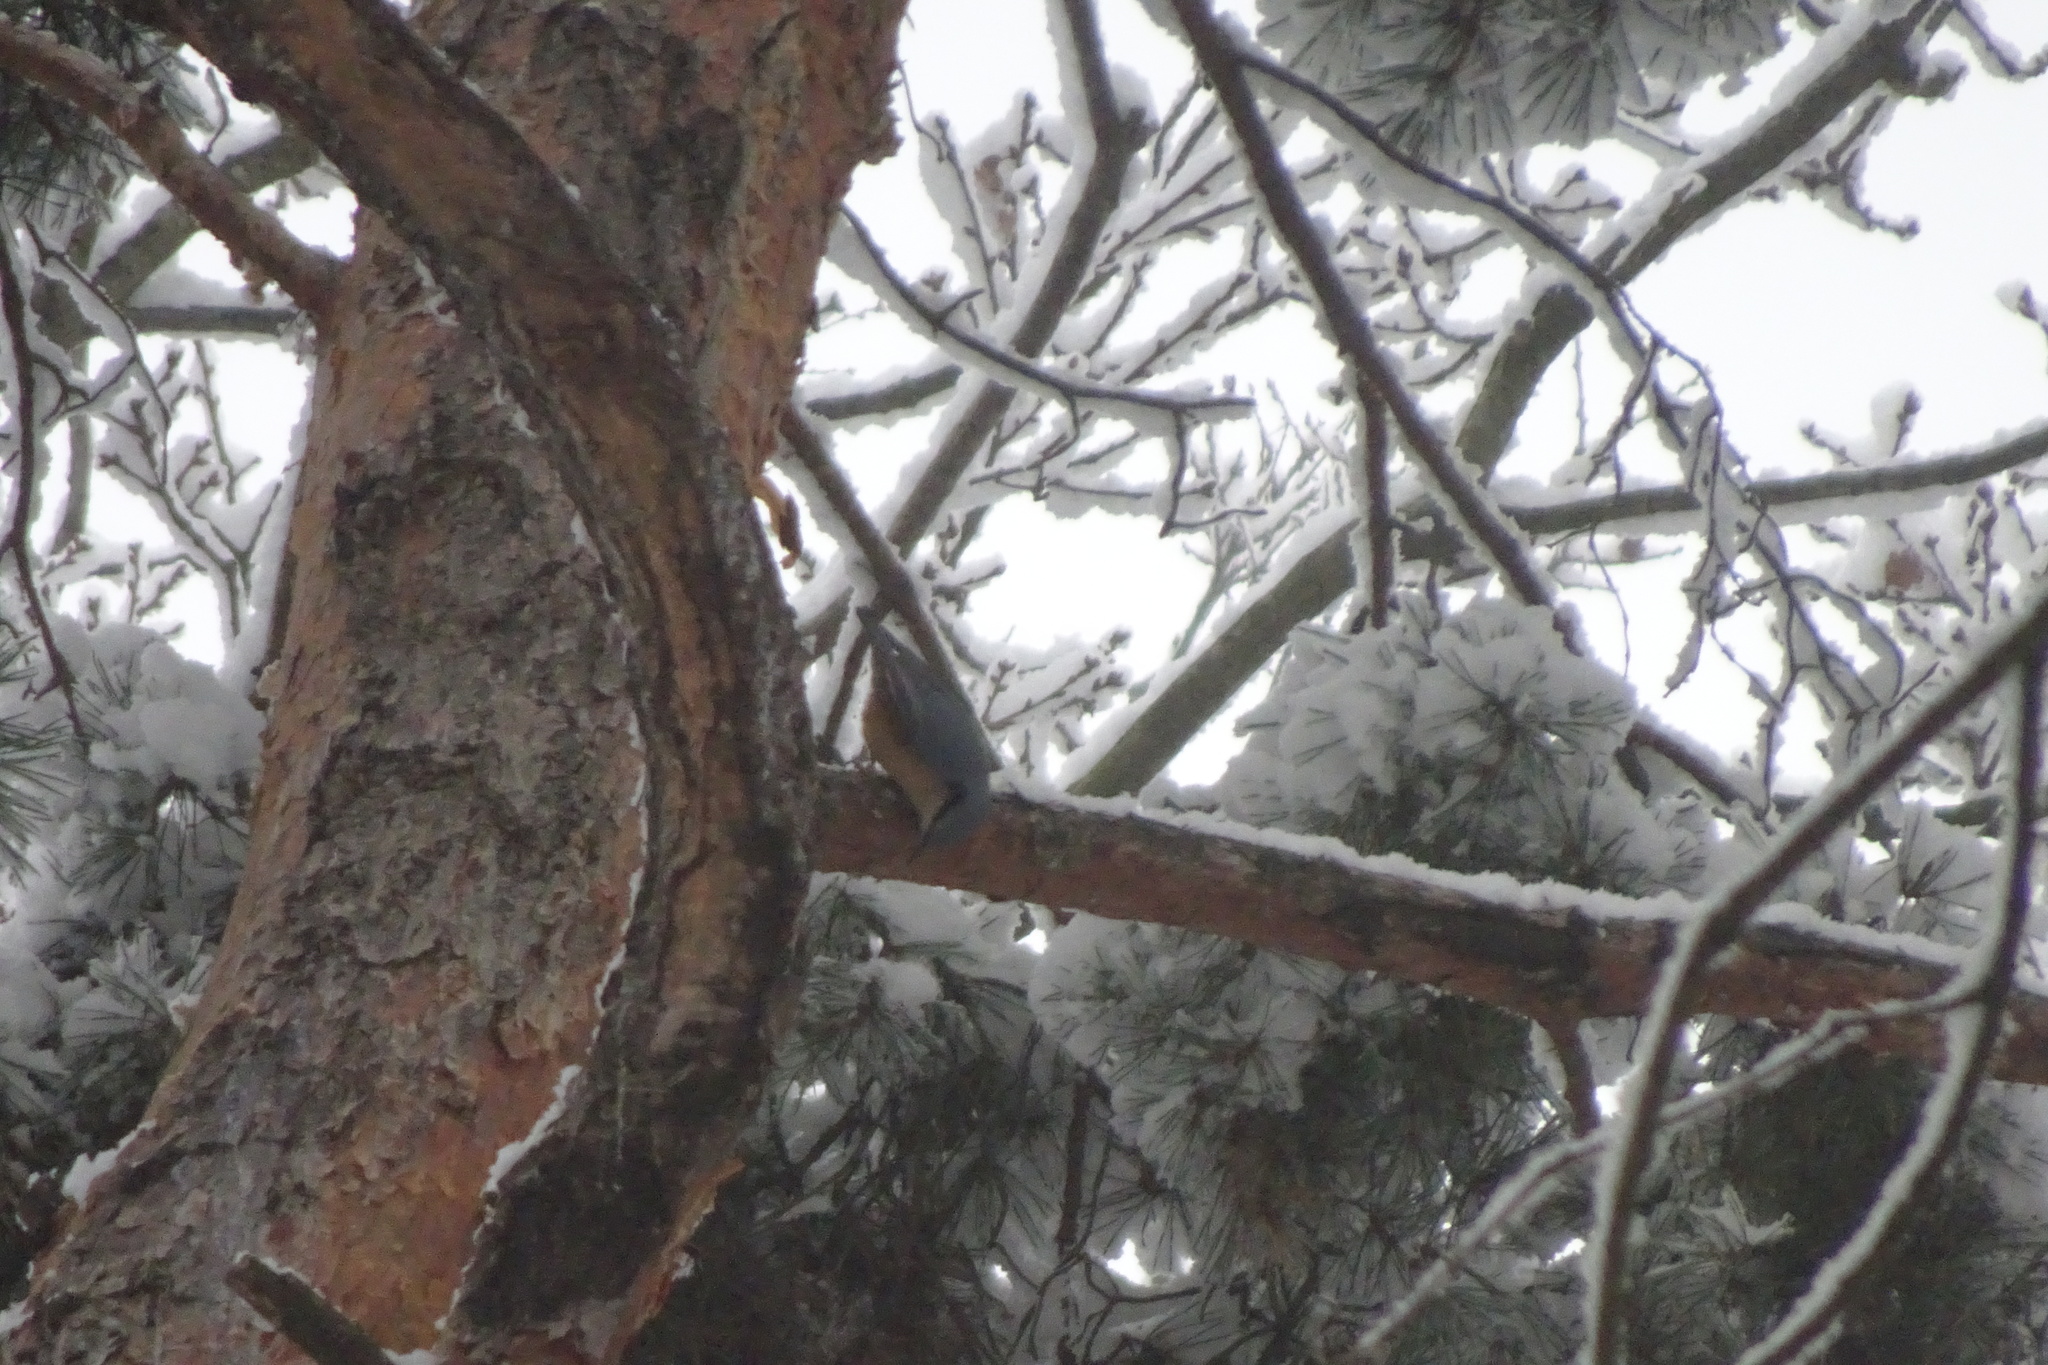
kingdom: Animalia
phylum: Chordata
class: Aves
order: Passeriformes
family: Sittidae
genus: Sitta
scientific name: Sitta europaea
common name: Eurasian nuthatch
